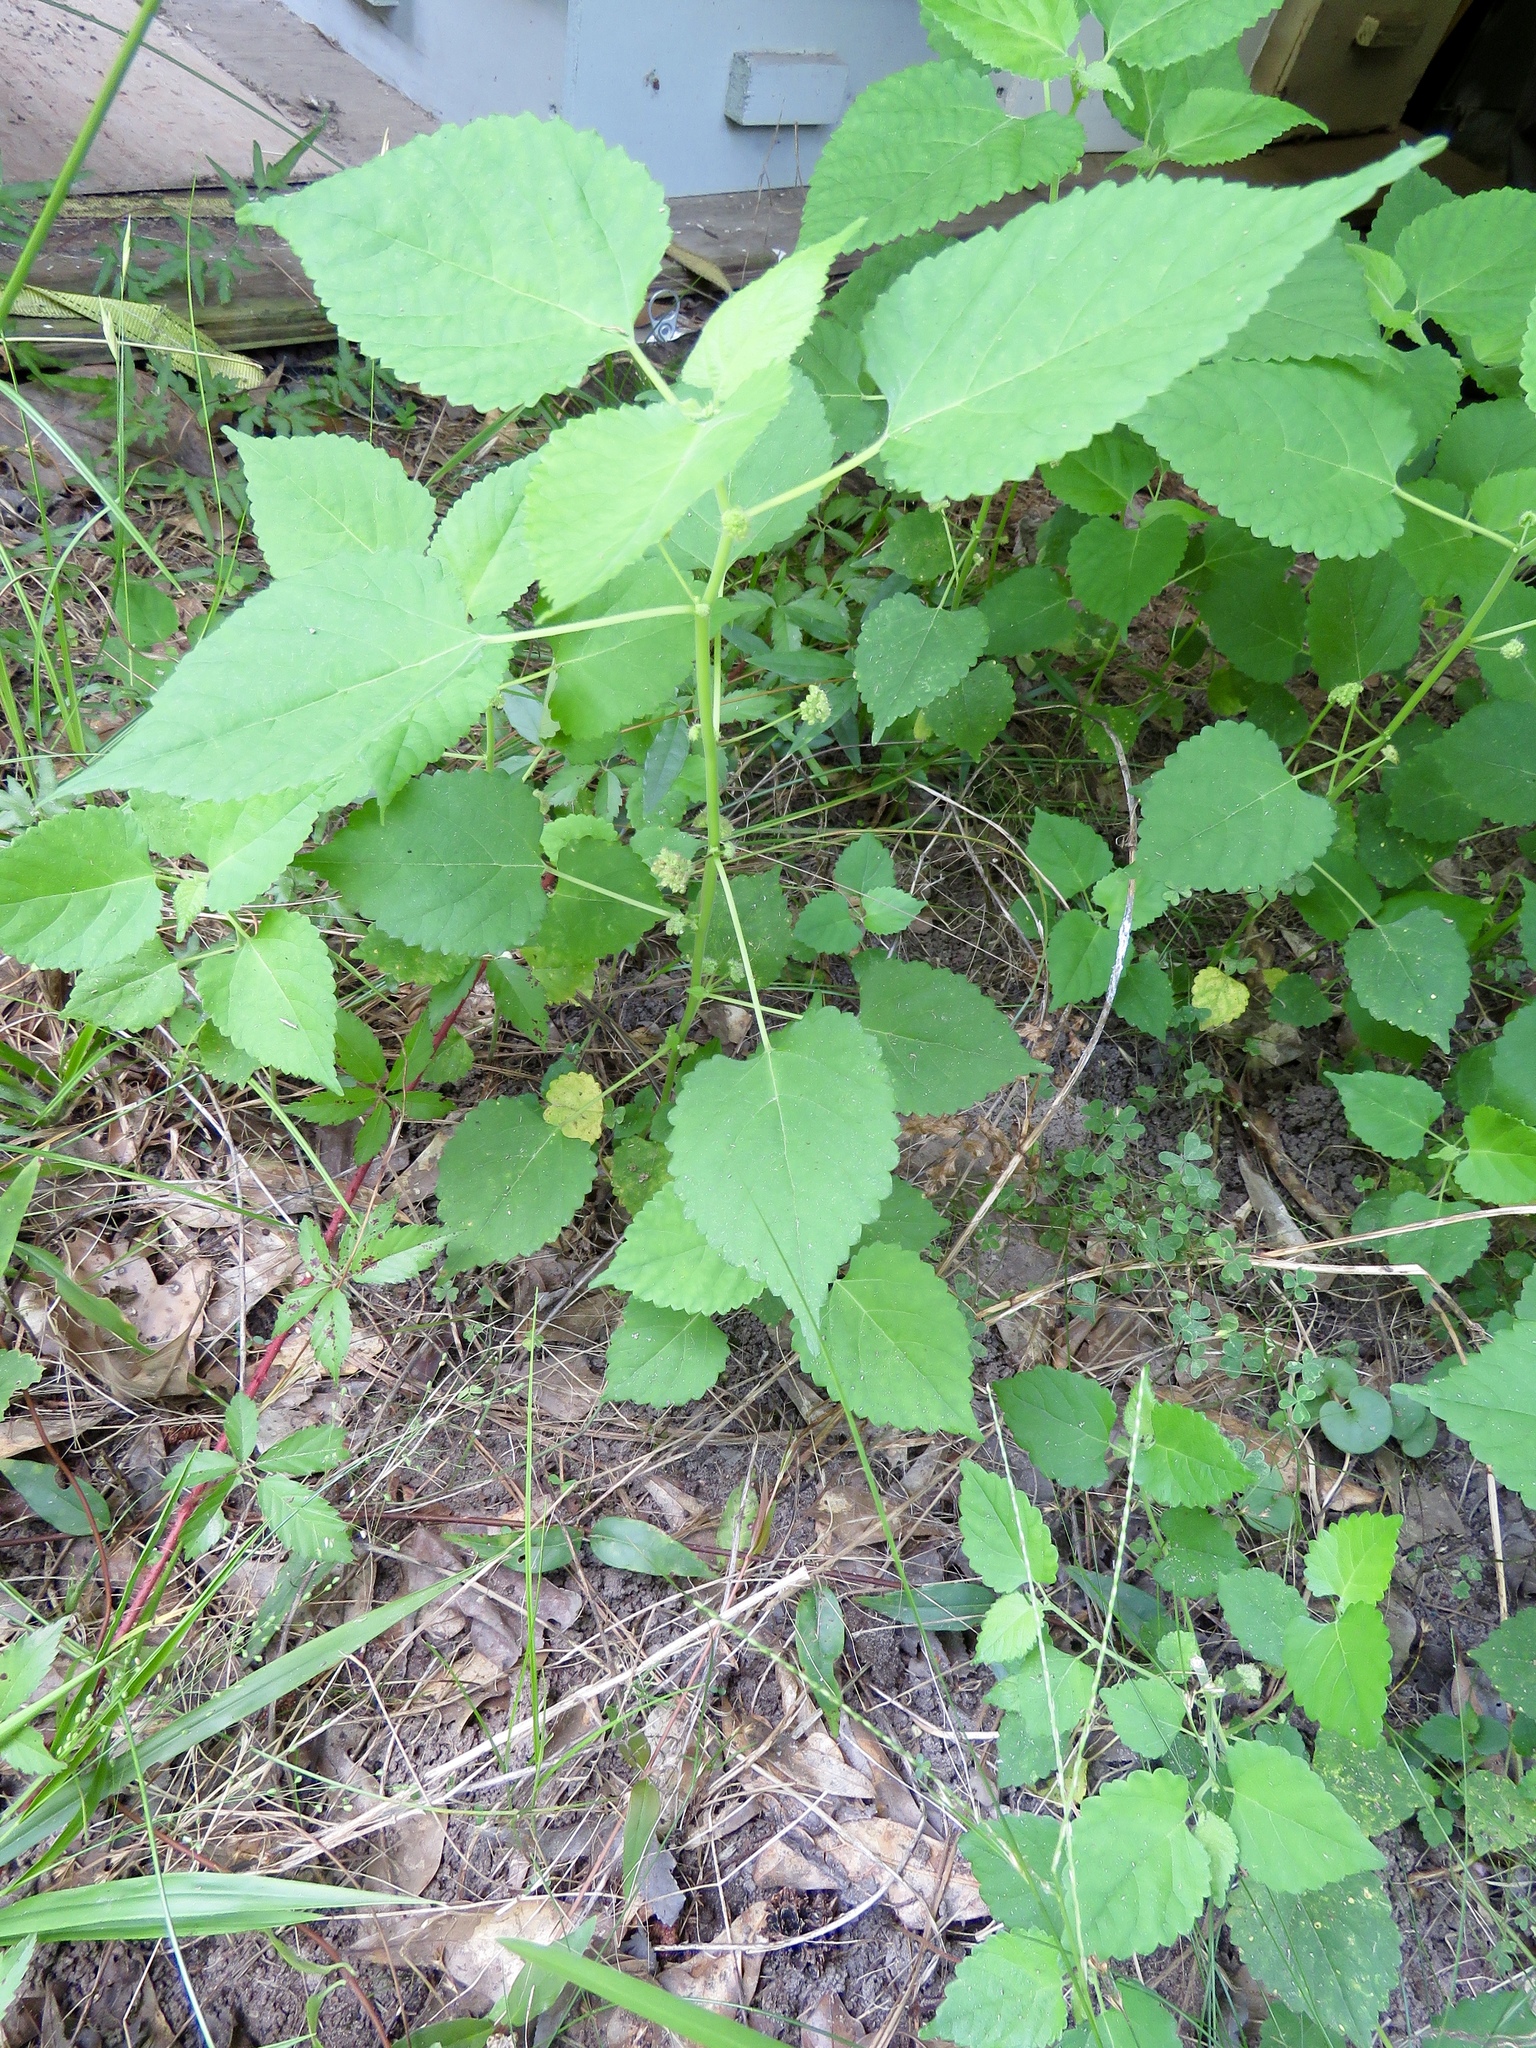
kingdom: Plantae
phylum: Tracheophyta
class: Magnoliopsida
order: Rosales
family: Moraceae
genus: Fatoua
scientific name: Fatoua villosa
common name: Hairy crabweed
